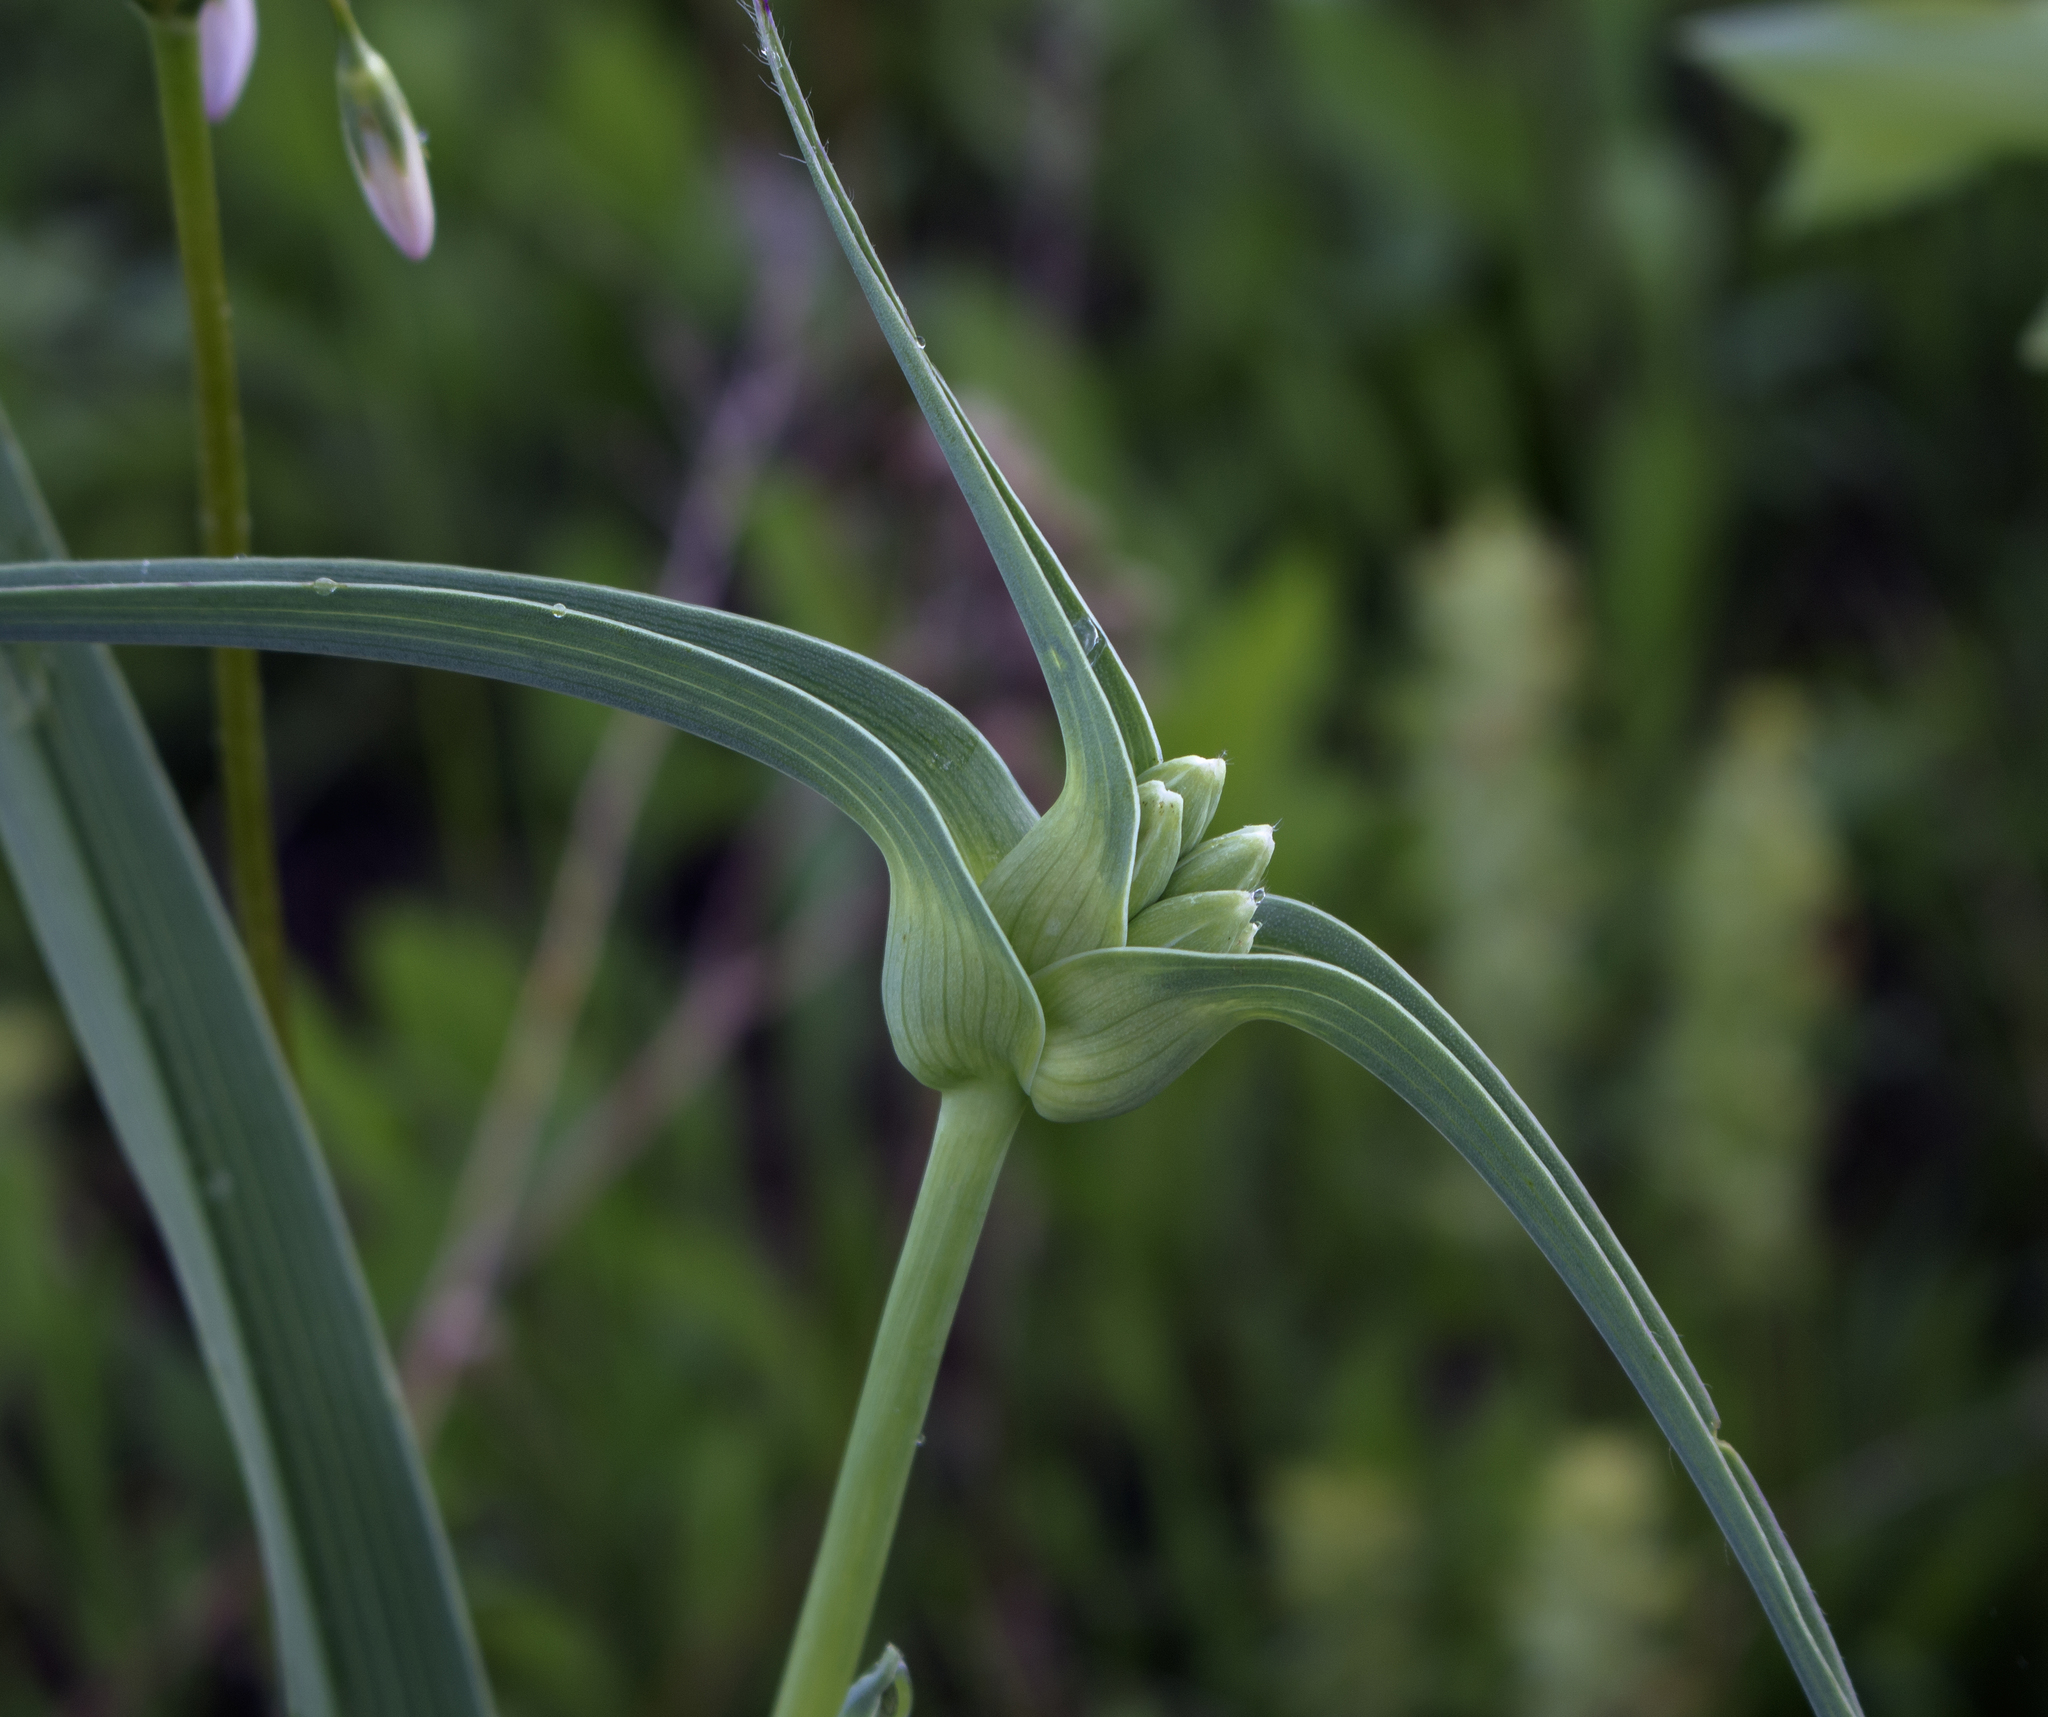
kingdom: Plantae
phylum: Tracheophyta
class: Liliopsida
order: Commelinales
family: Commelinaceae
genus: Tradescantia
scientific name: Tradescantia ohiensis
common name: Ohio spiderwort
